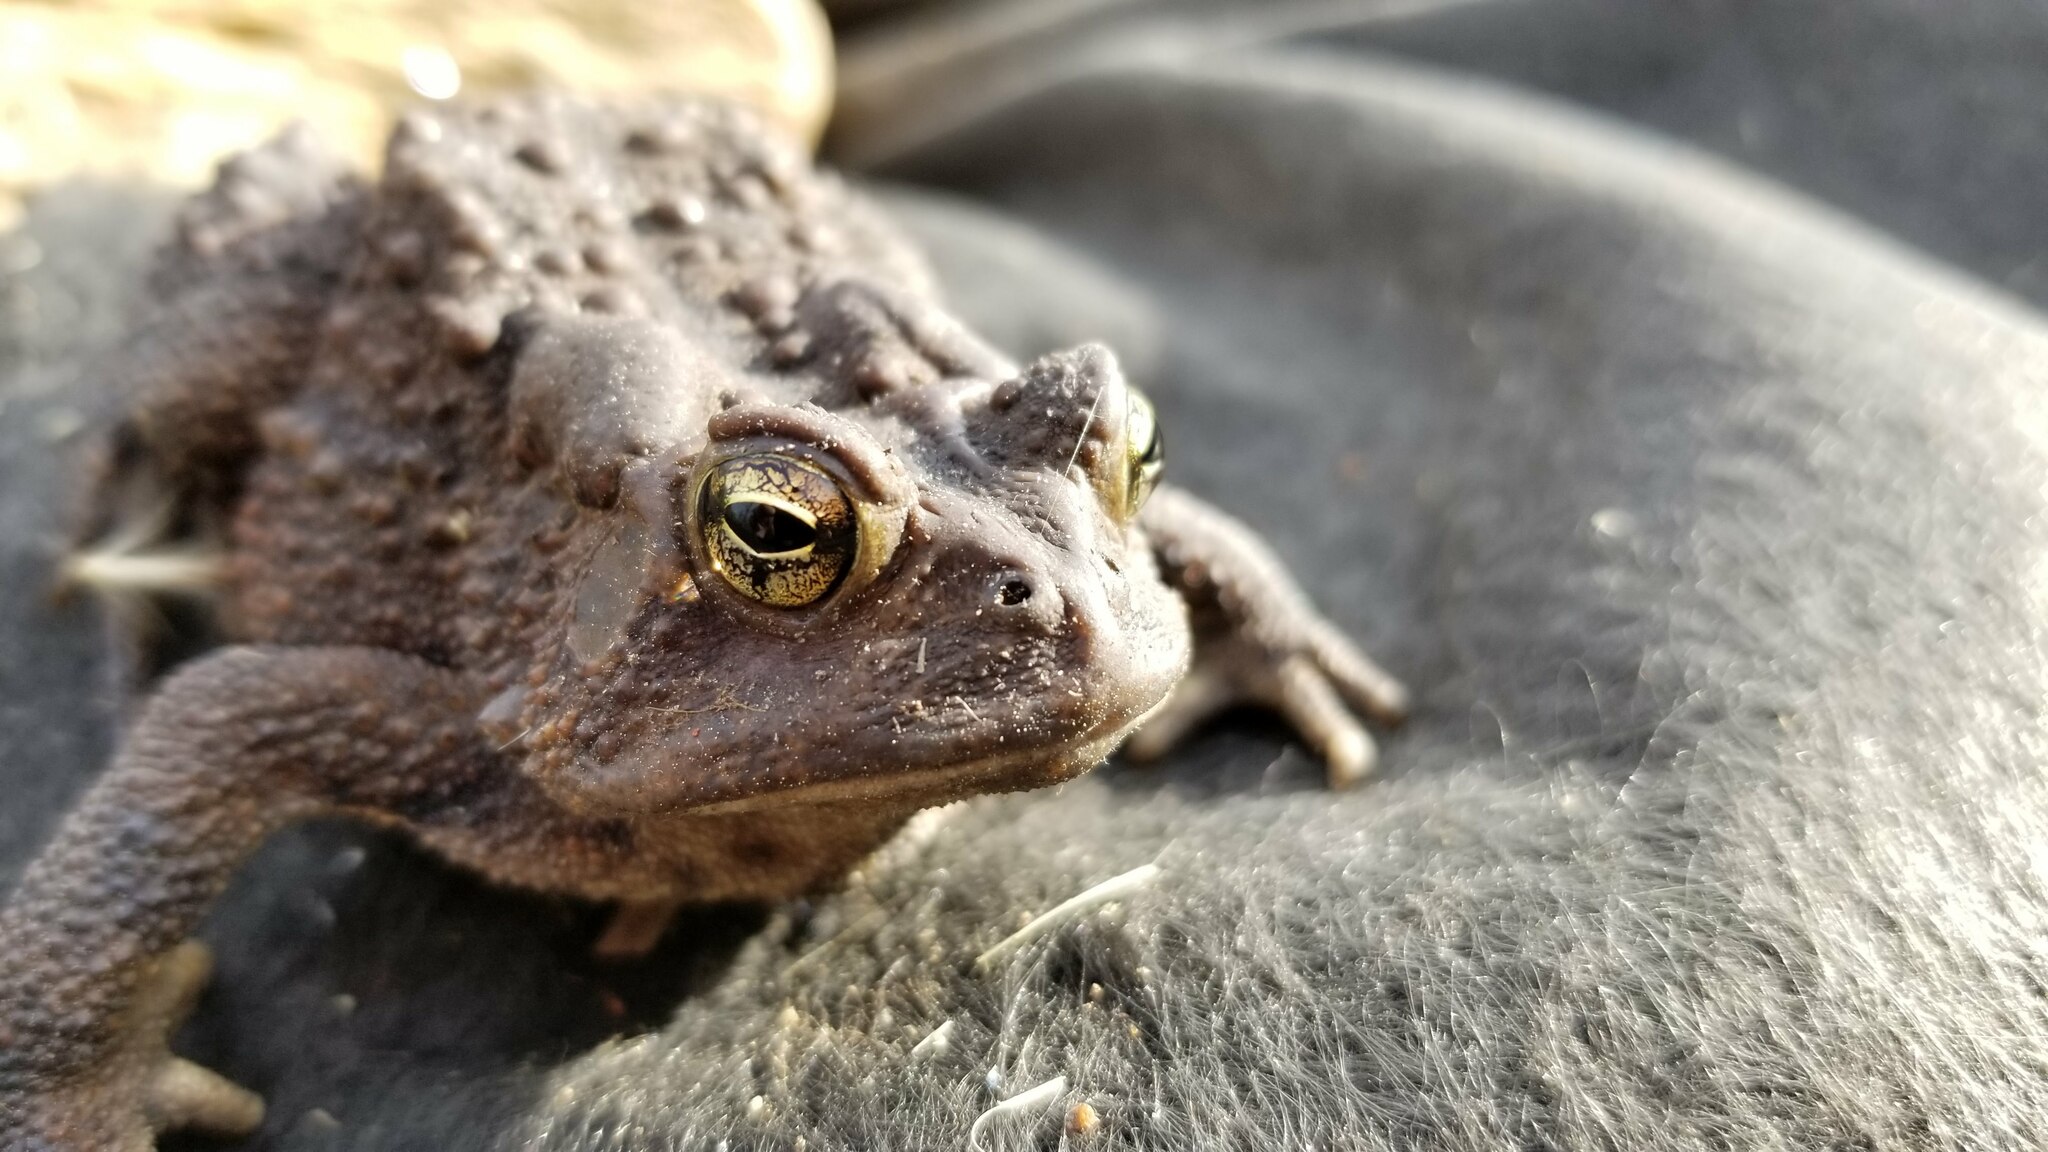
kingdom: Animalia
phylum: Chordata
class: Amphibia
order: Anura
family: Bufonidae
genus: Anaxyrus
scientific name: Anaxyrus americanus
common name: American toad
